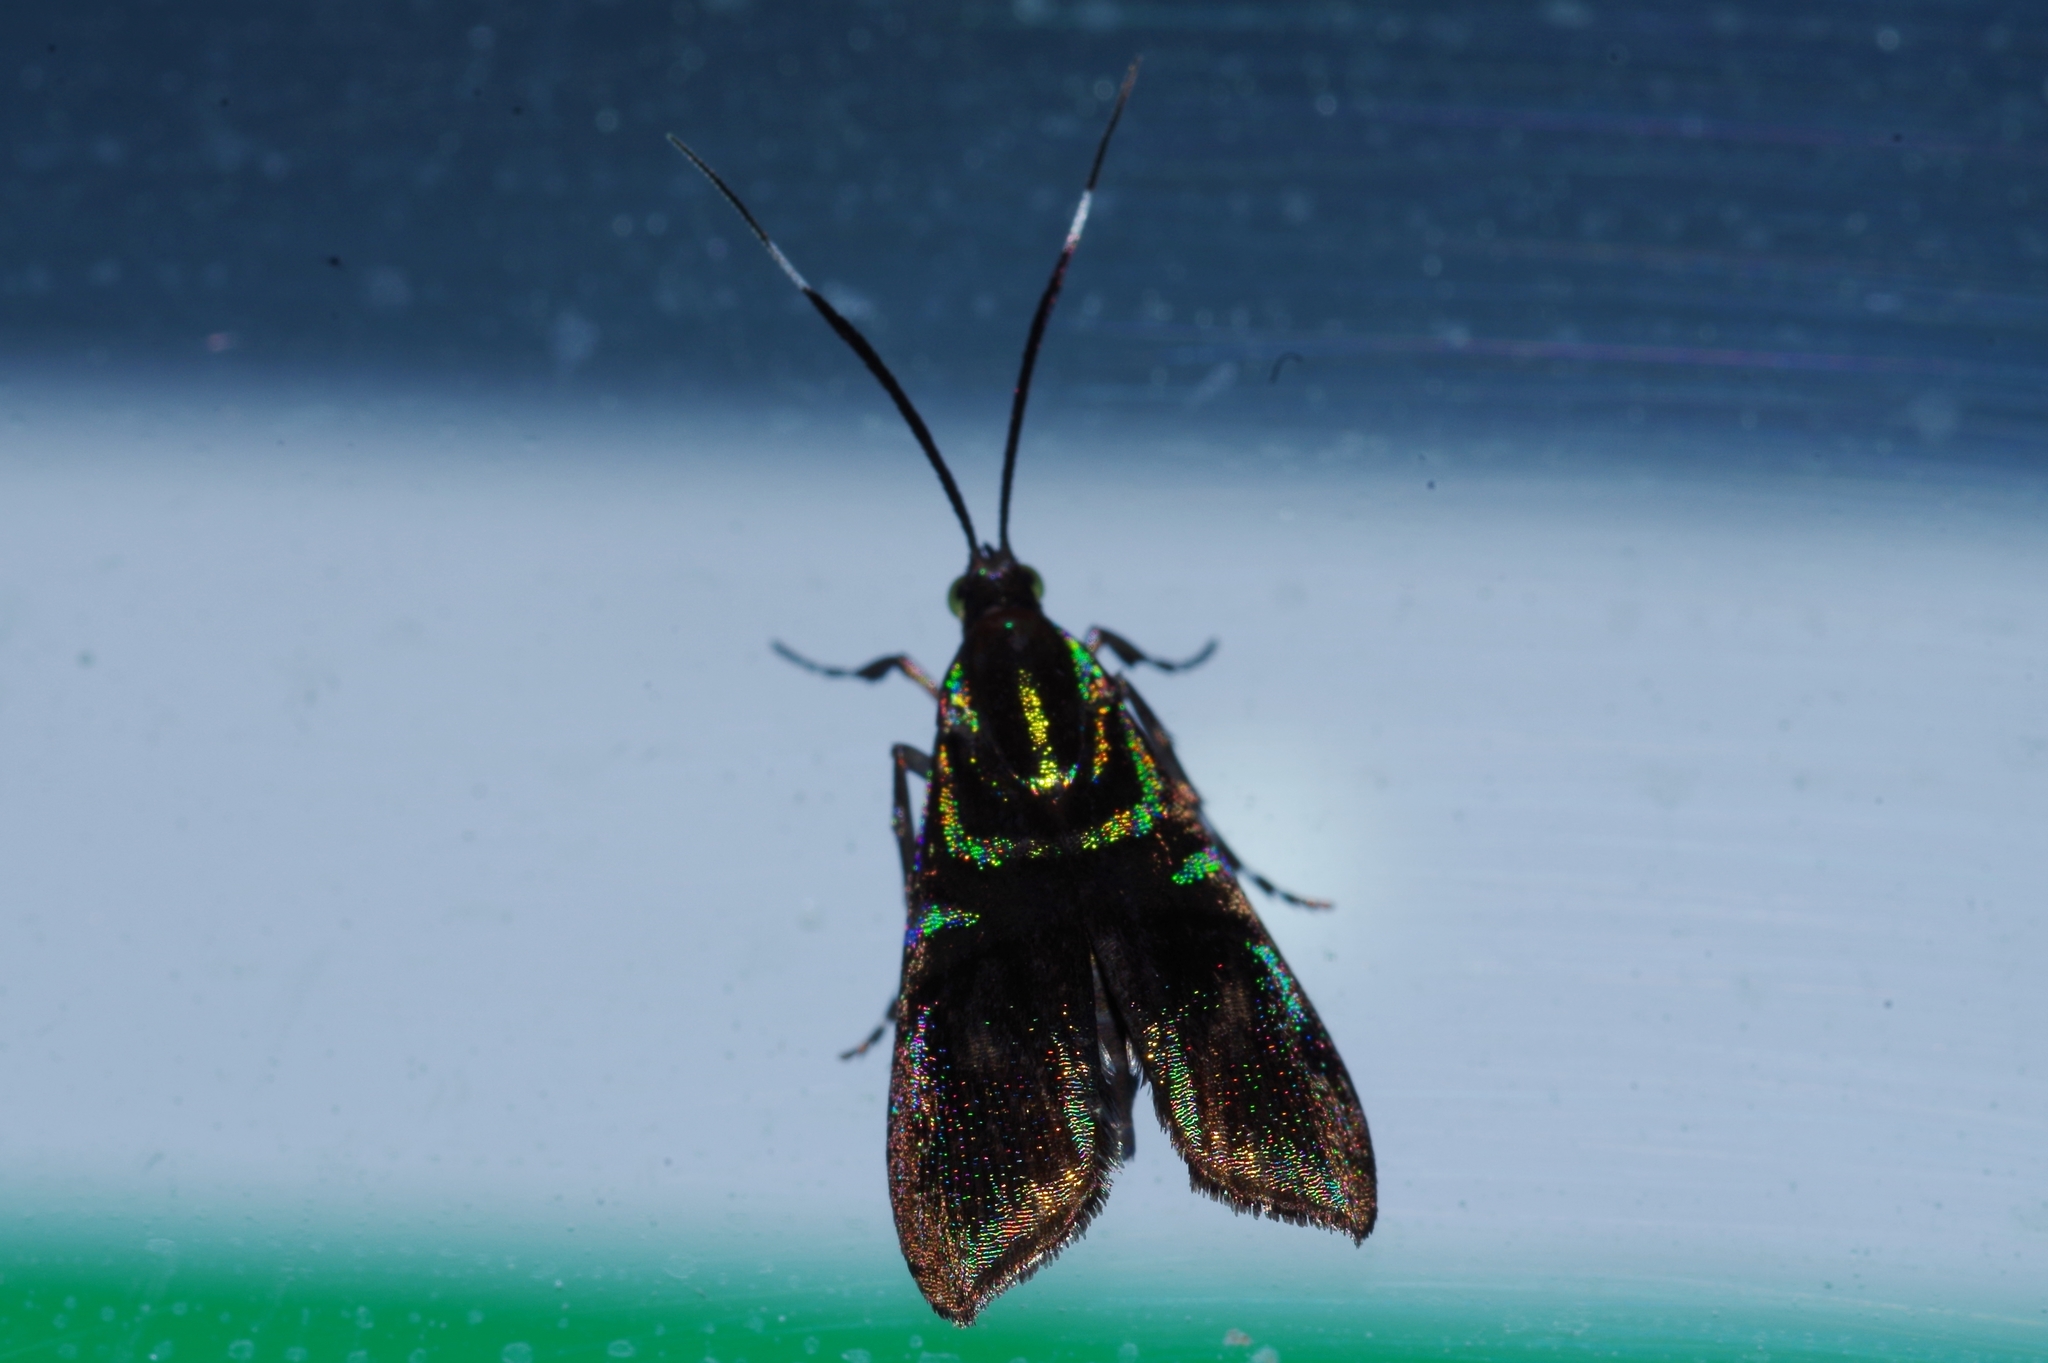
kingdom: Animalia
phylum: Arthropoda
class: Insecta
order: Lepidoptera
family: Choreutidae
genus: Saptha
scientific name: Saptha divitiosa
